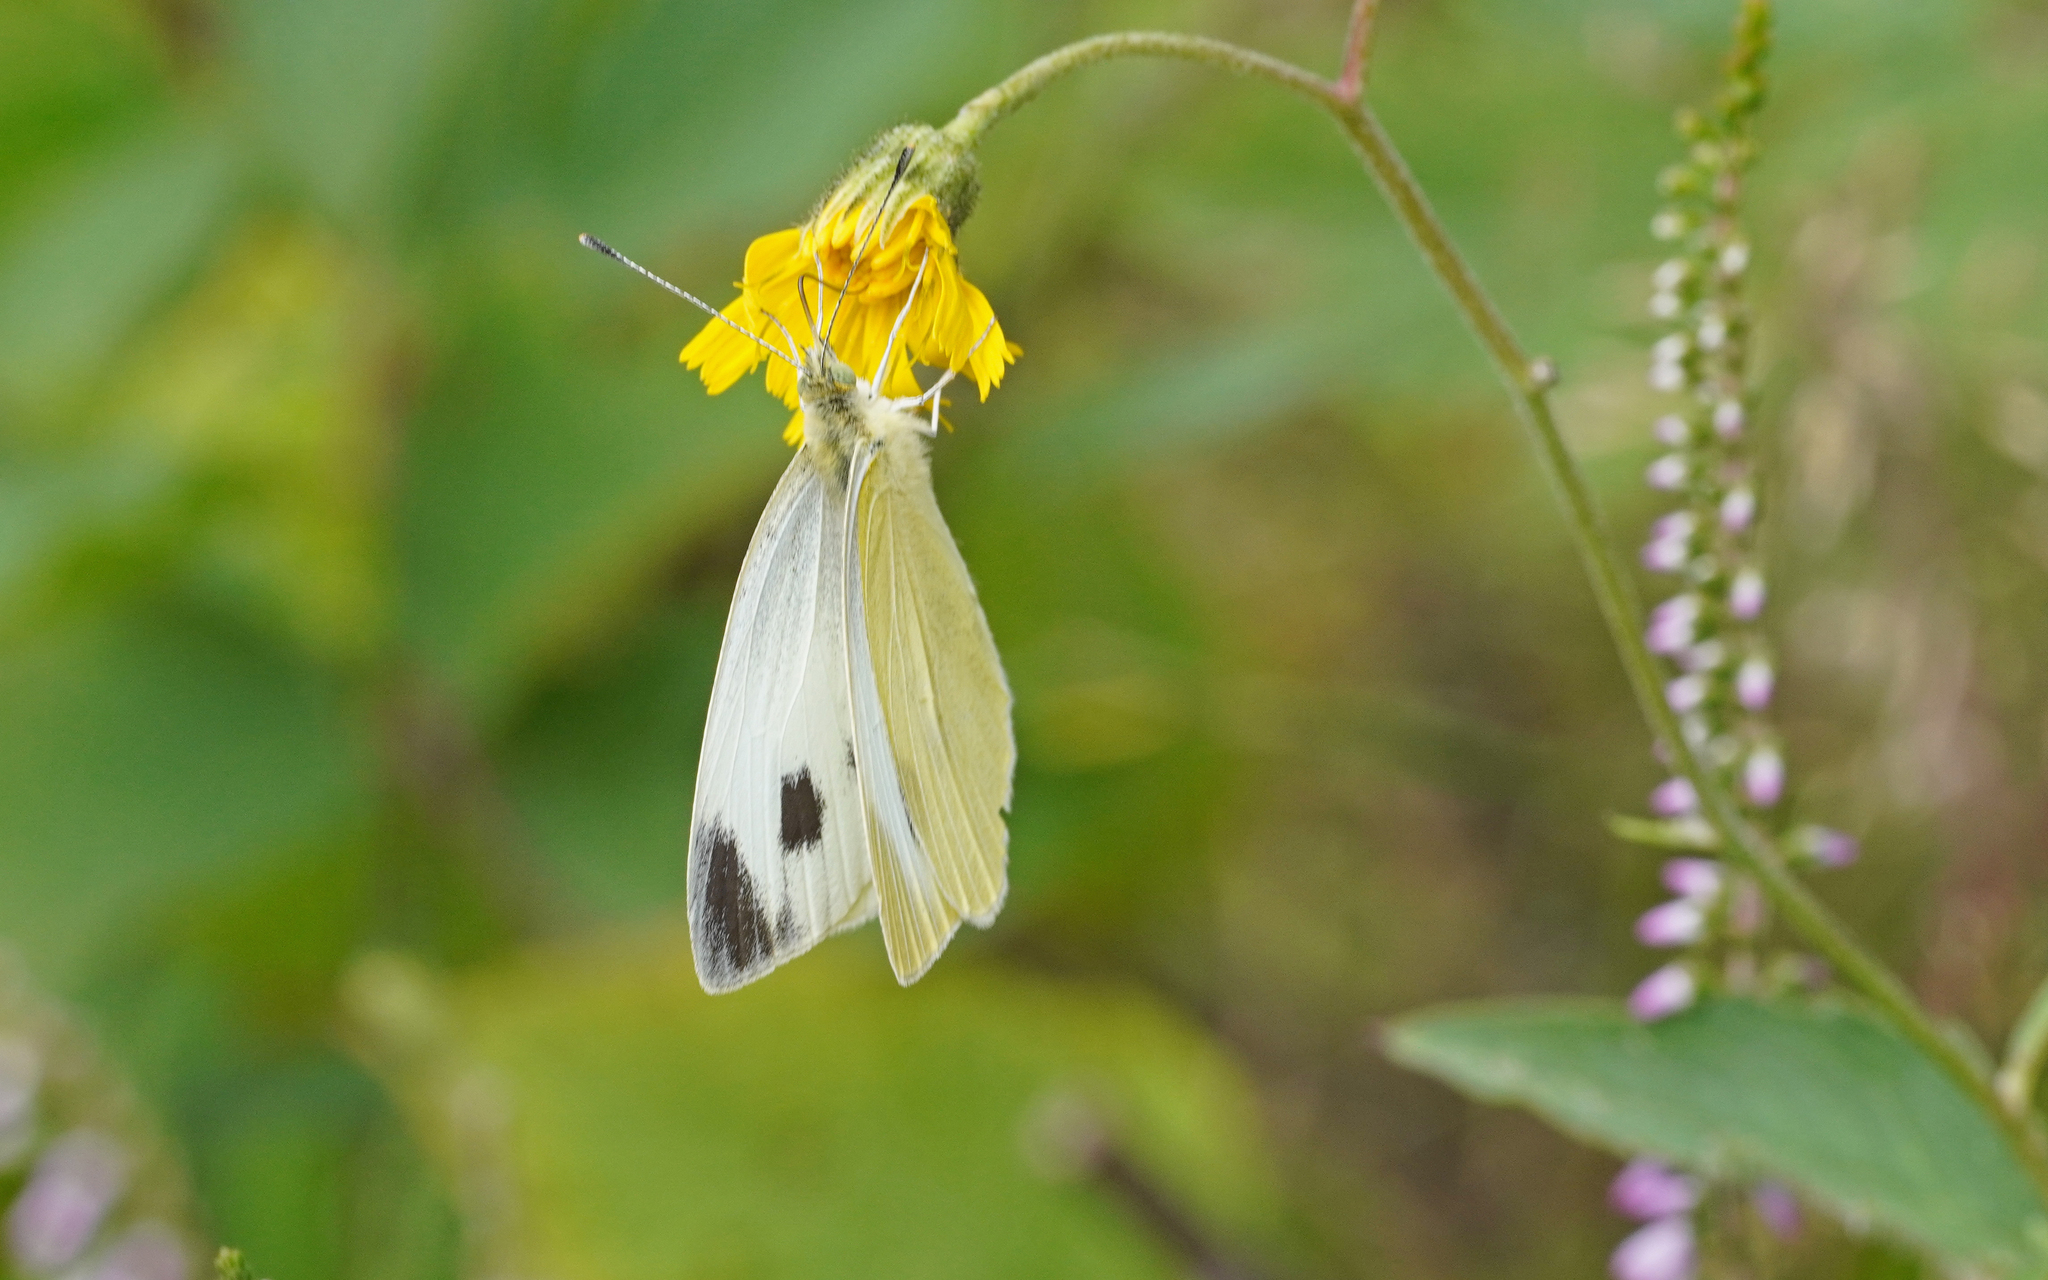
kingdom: Animalia
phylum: Arthropoda
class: Insecta
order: Lepidoptera
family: Pieridae
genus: Pieris
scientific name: Pieris mannii
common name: Southern small white
